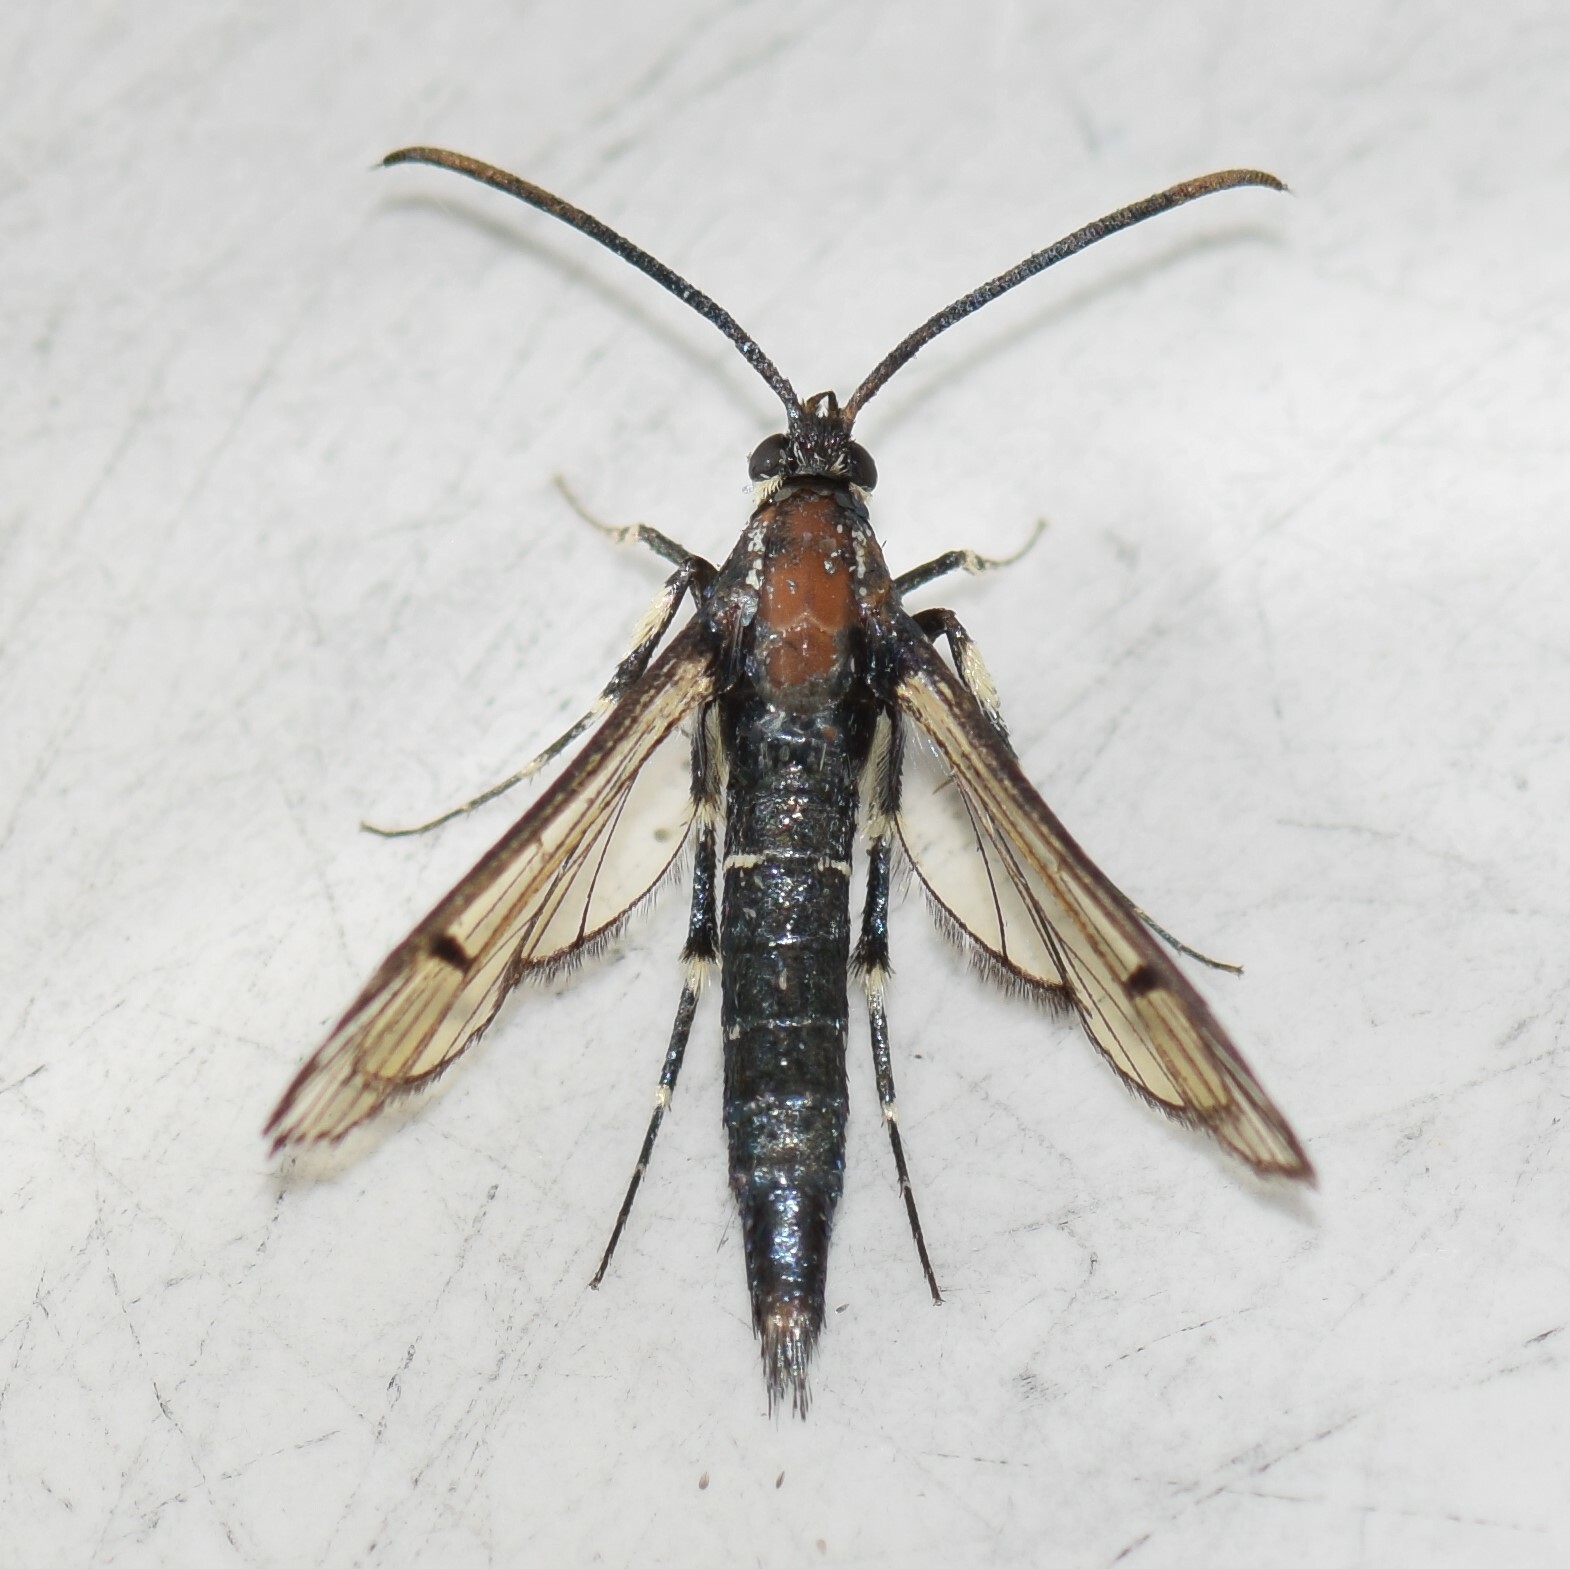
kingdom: Animalia
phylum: Arthropoda
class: Insecta
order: Lepidoptera
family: Sesiidae
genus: Synanthedon
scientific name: Synanthedon exitiosa
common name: Peachtree borer moth
